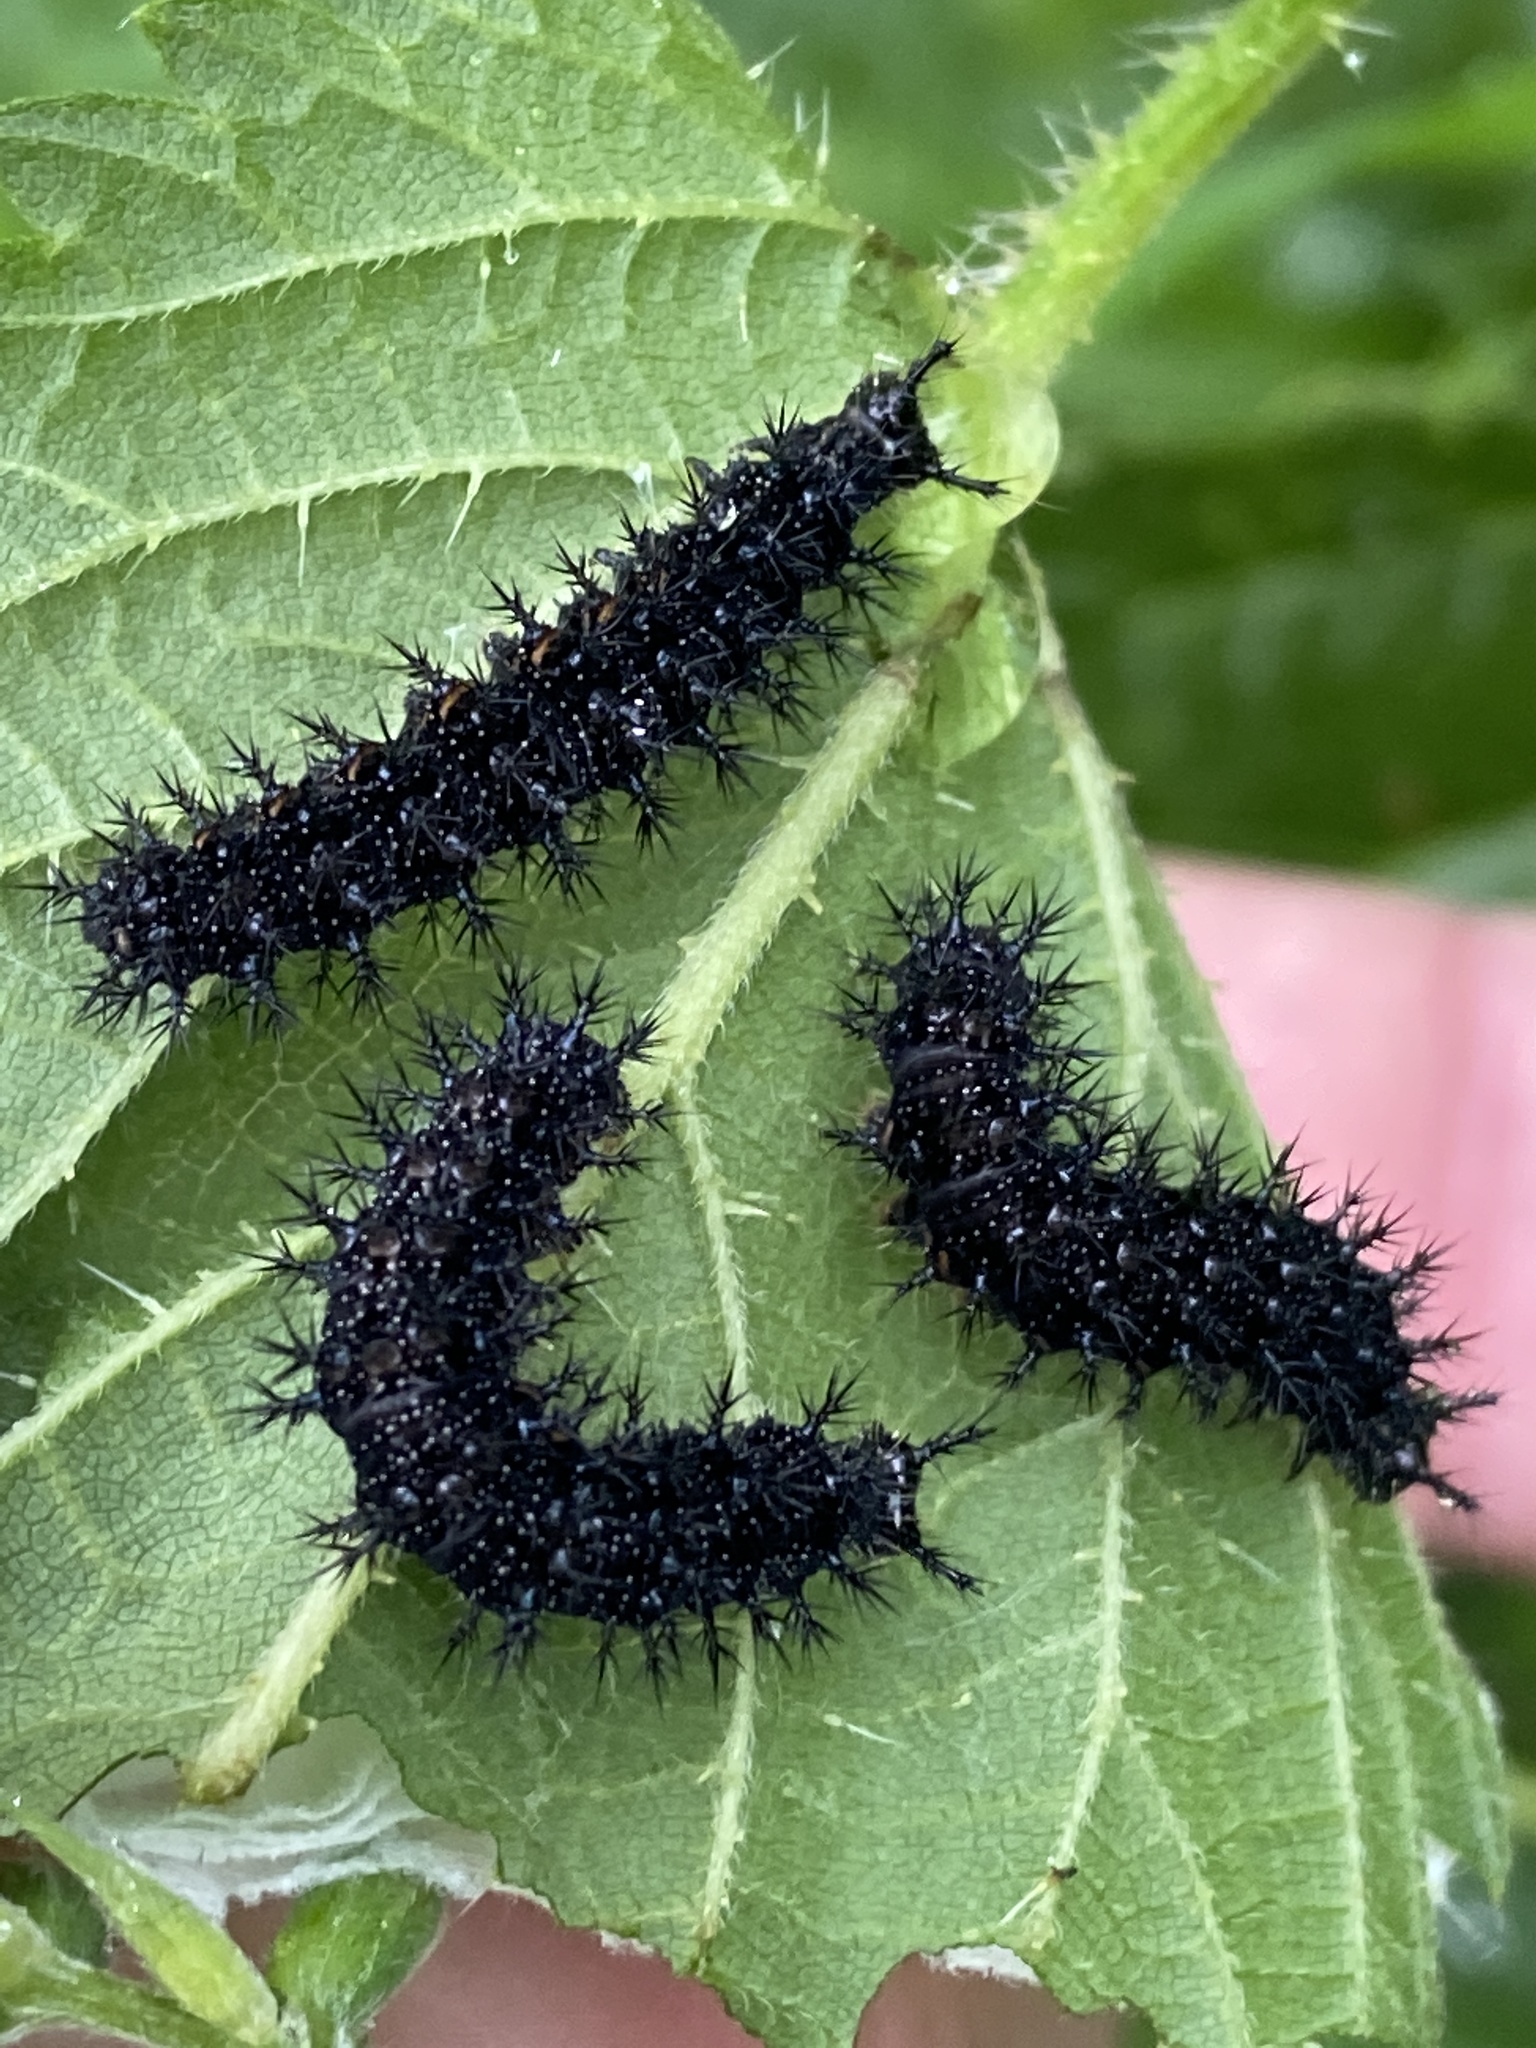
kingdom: Animalia
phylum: Arthropoda
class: Insecta
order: Lepidoptera
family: Nymphalidae
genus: Araschnia
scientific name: Araschnia levana
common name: Map butterfly
